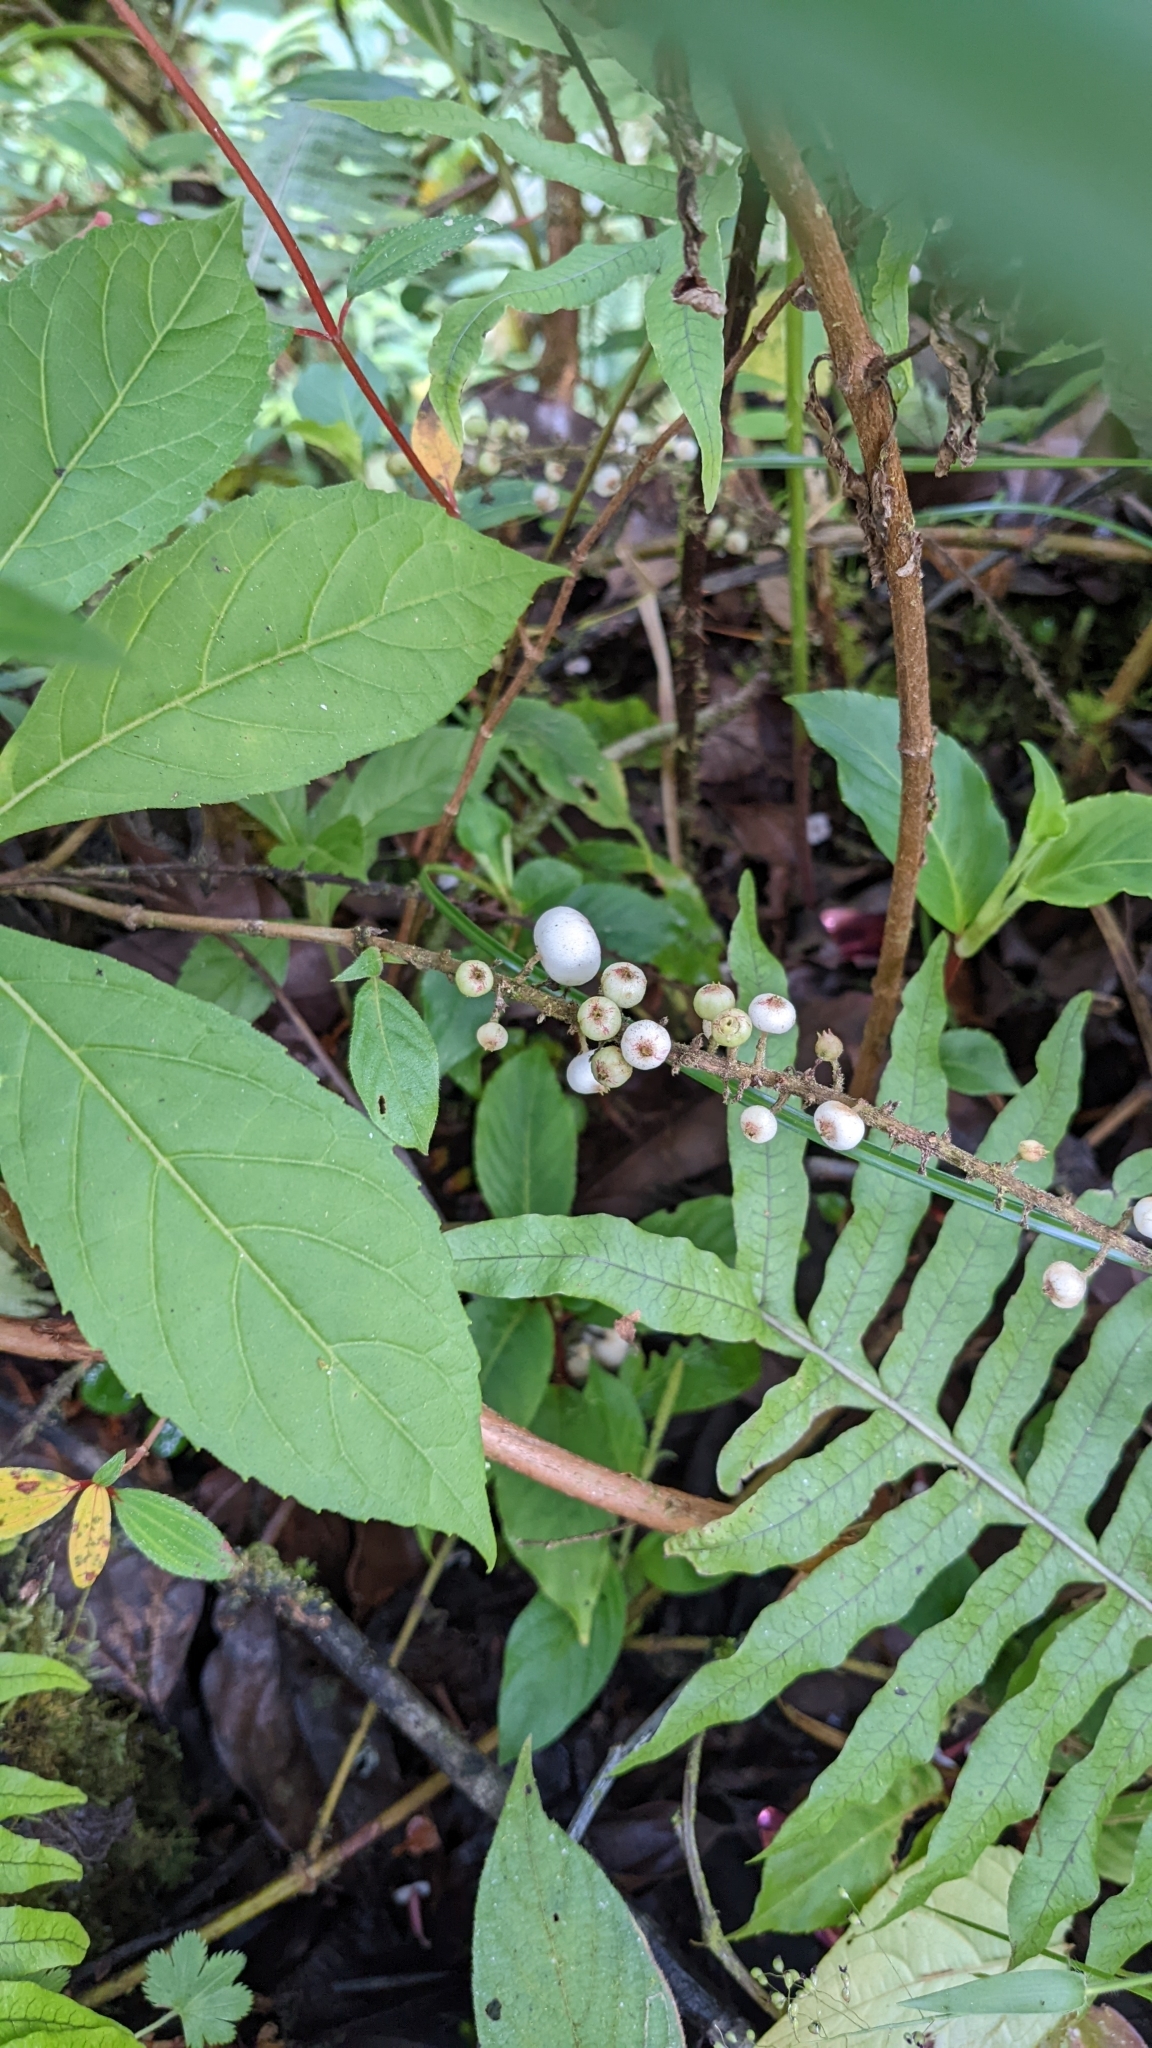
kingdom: Plantae
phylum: Tracheophyta
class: Magnoliopsida
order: Gentianales
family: Rubiaceae
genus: Gonzalagunia
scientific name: Gonzalagunia rosea
